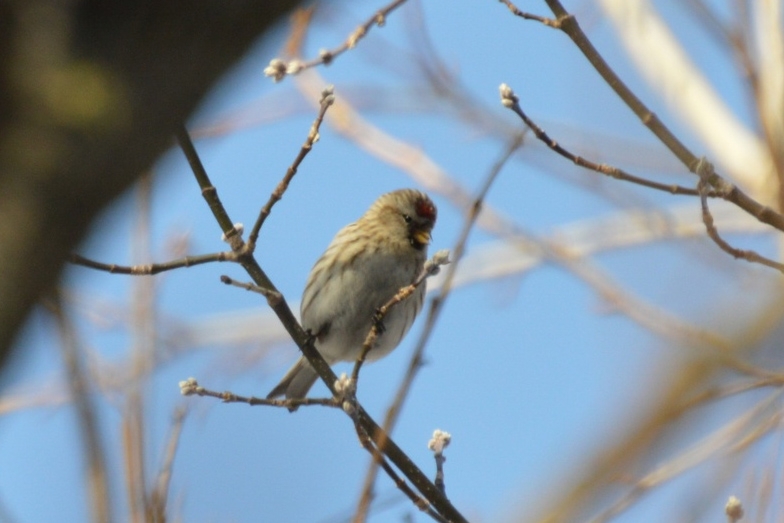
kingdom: Animalia
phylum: Chordata
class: Aves
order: Passeriformes
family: Fringillidae
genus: Acanthis
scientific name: Acanthis flammea
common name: Common redpoll
